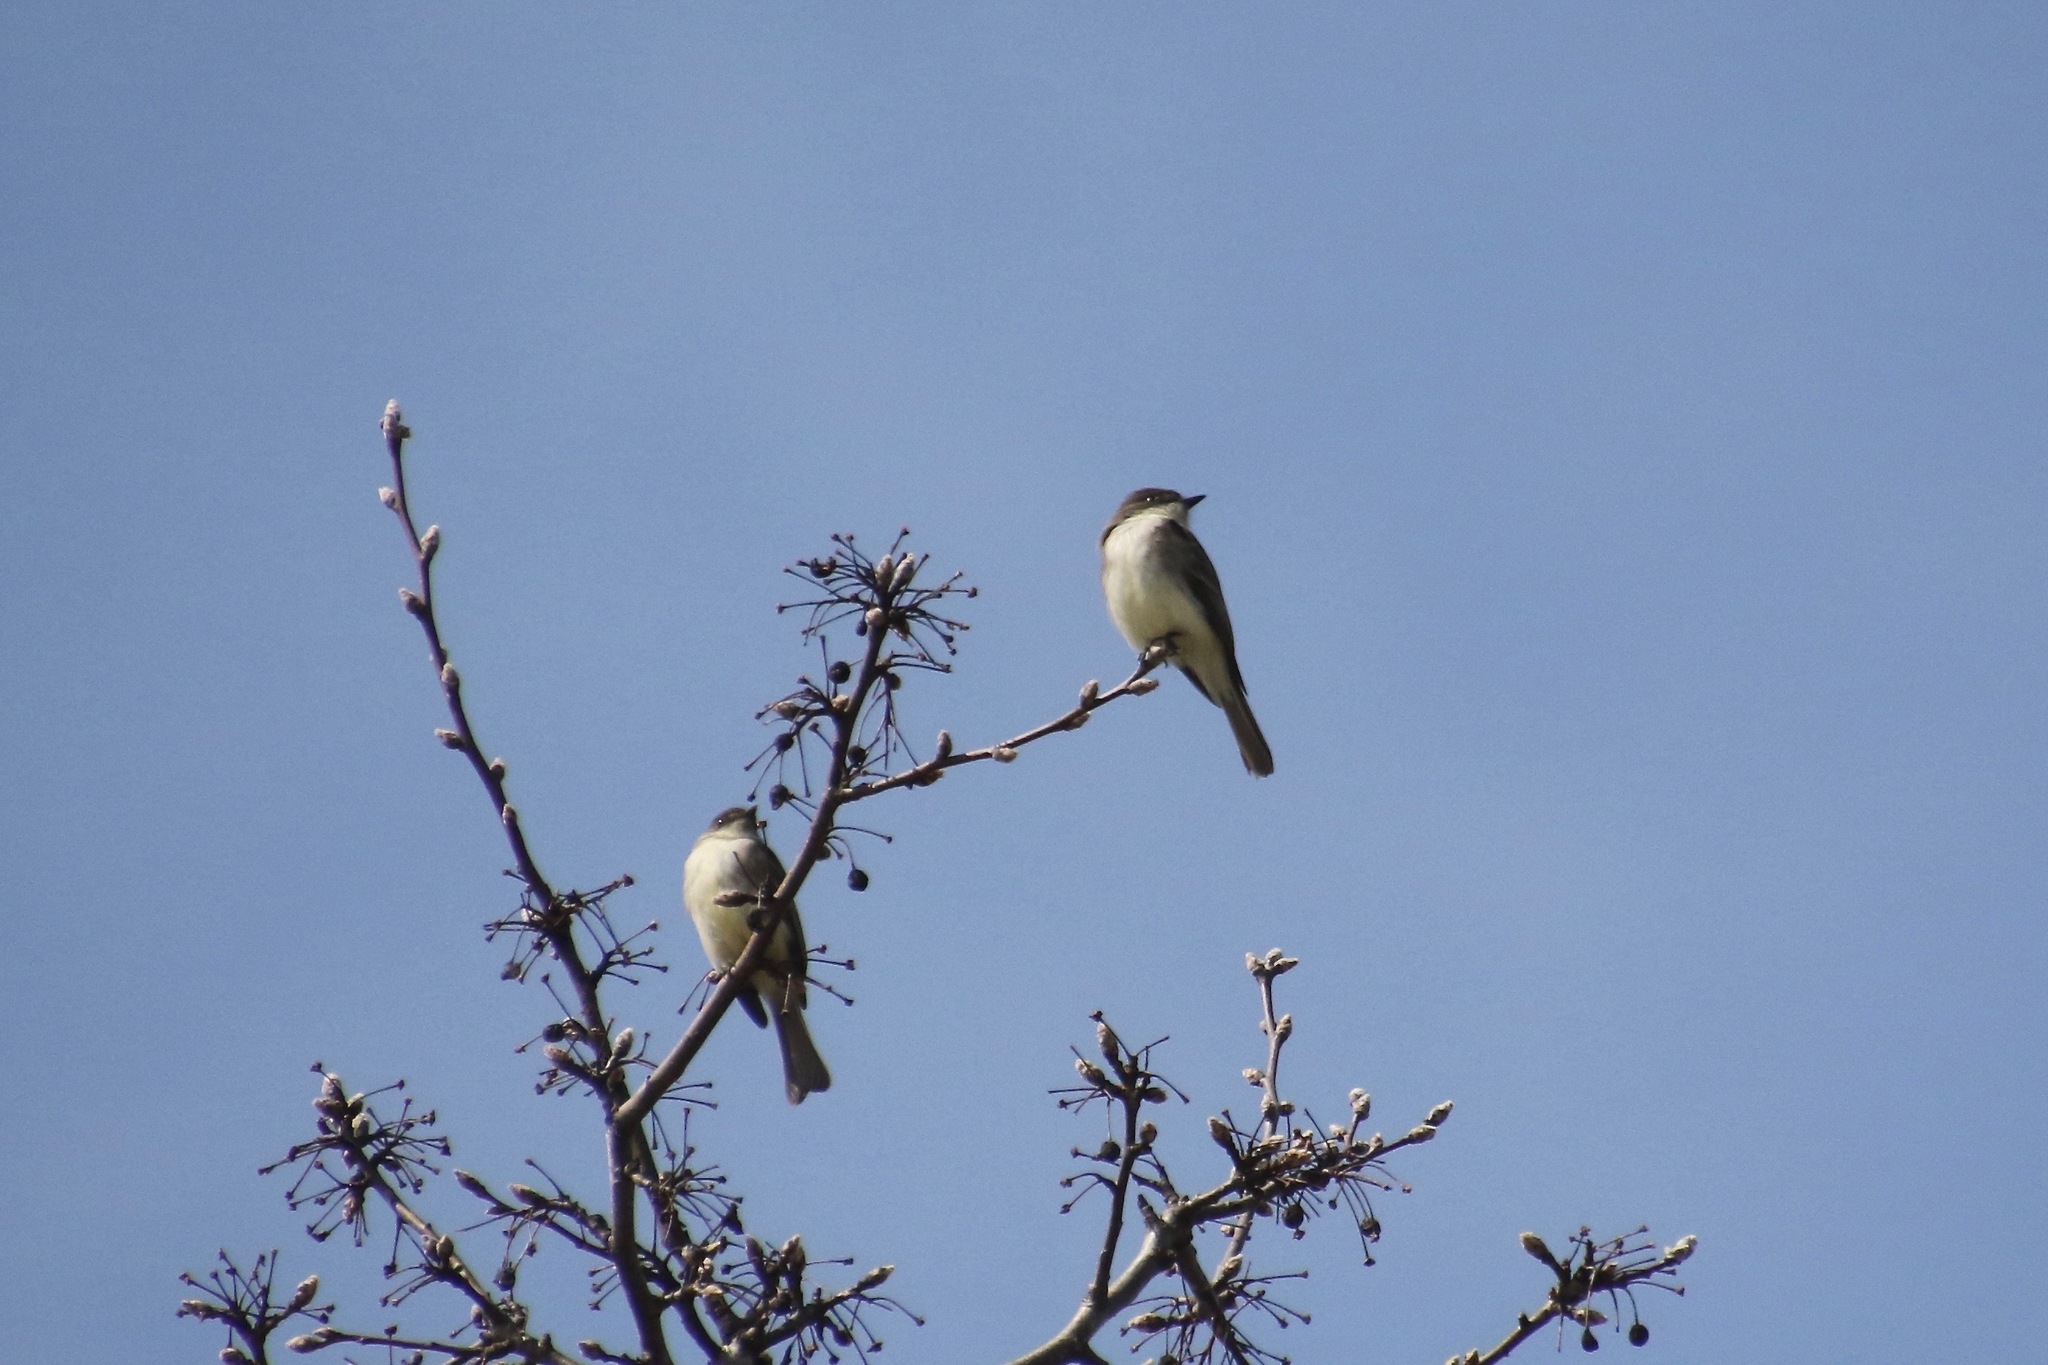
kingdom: Animalia
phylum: Chordata
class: Aves
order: Passeriformes
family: Tyrannidae
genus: Sayornis
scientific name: Sayornis phoebe
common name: Eastern phoebe
